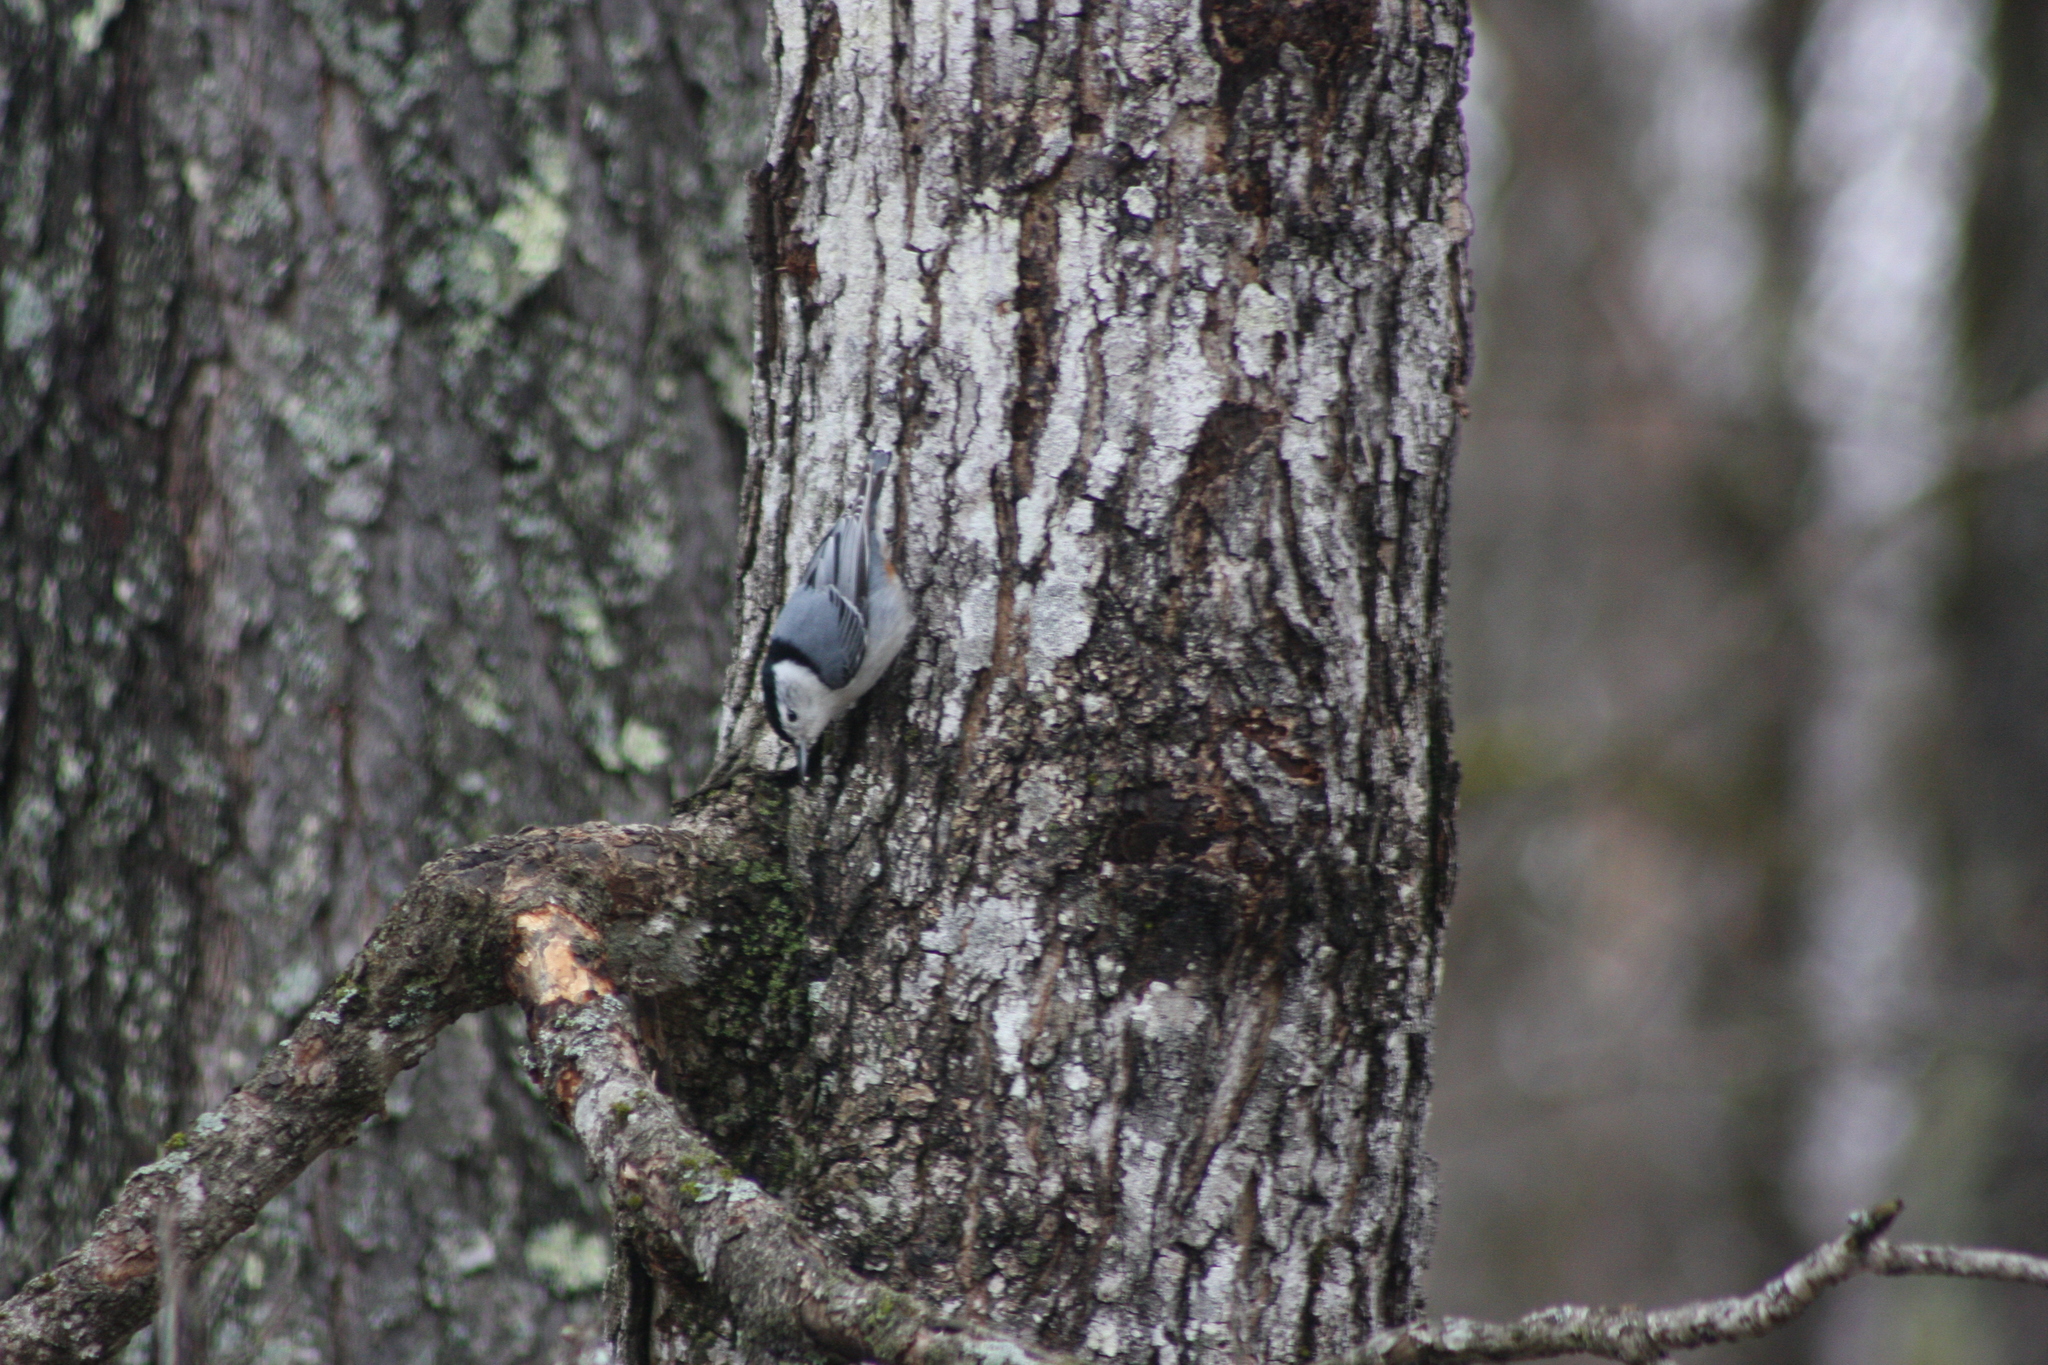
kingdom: Animalia
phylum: Chordata
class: Aves
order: Passeriformes
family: Sittidae
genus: Sitta
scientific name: Sitta carolinensis
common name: White-breasted nuthatch
